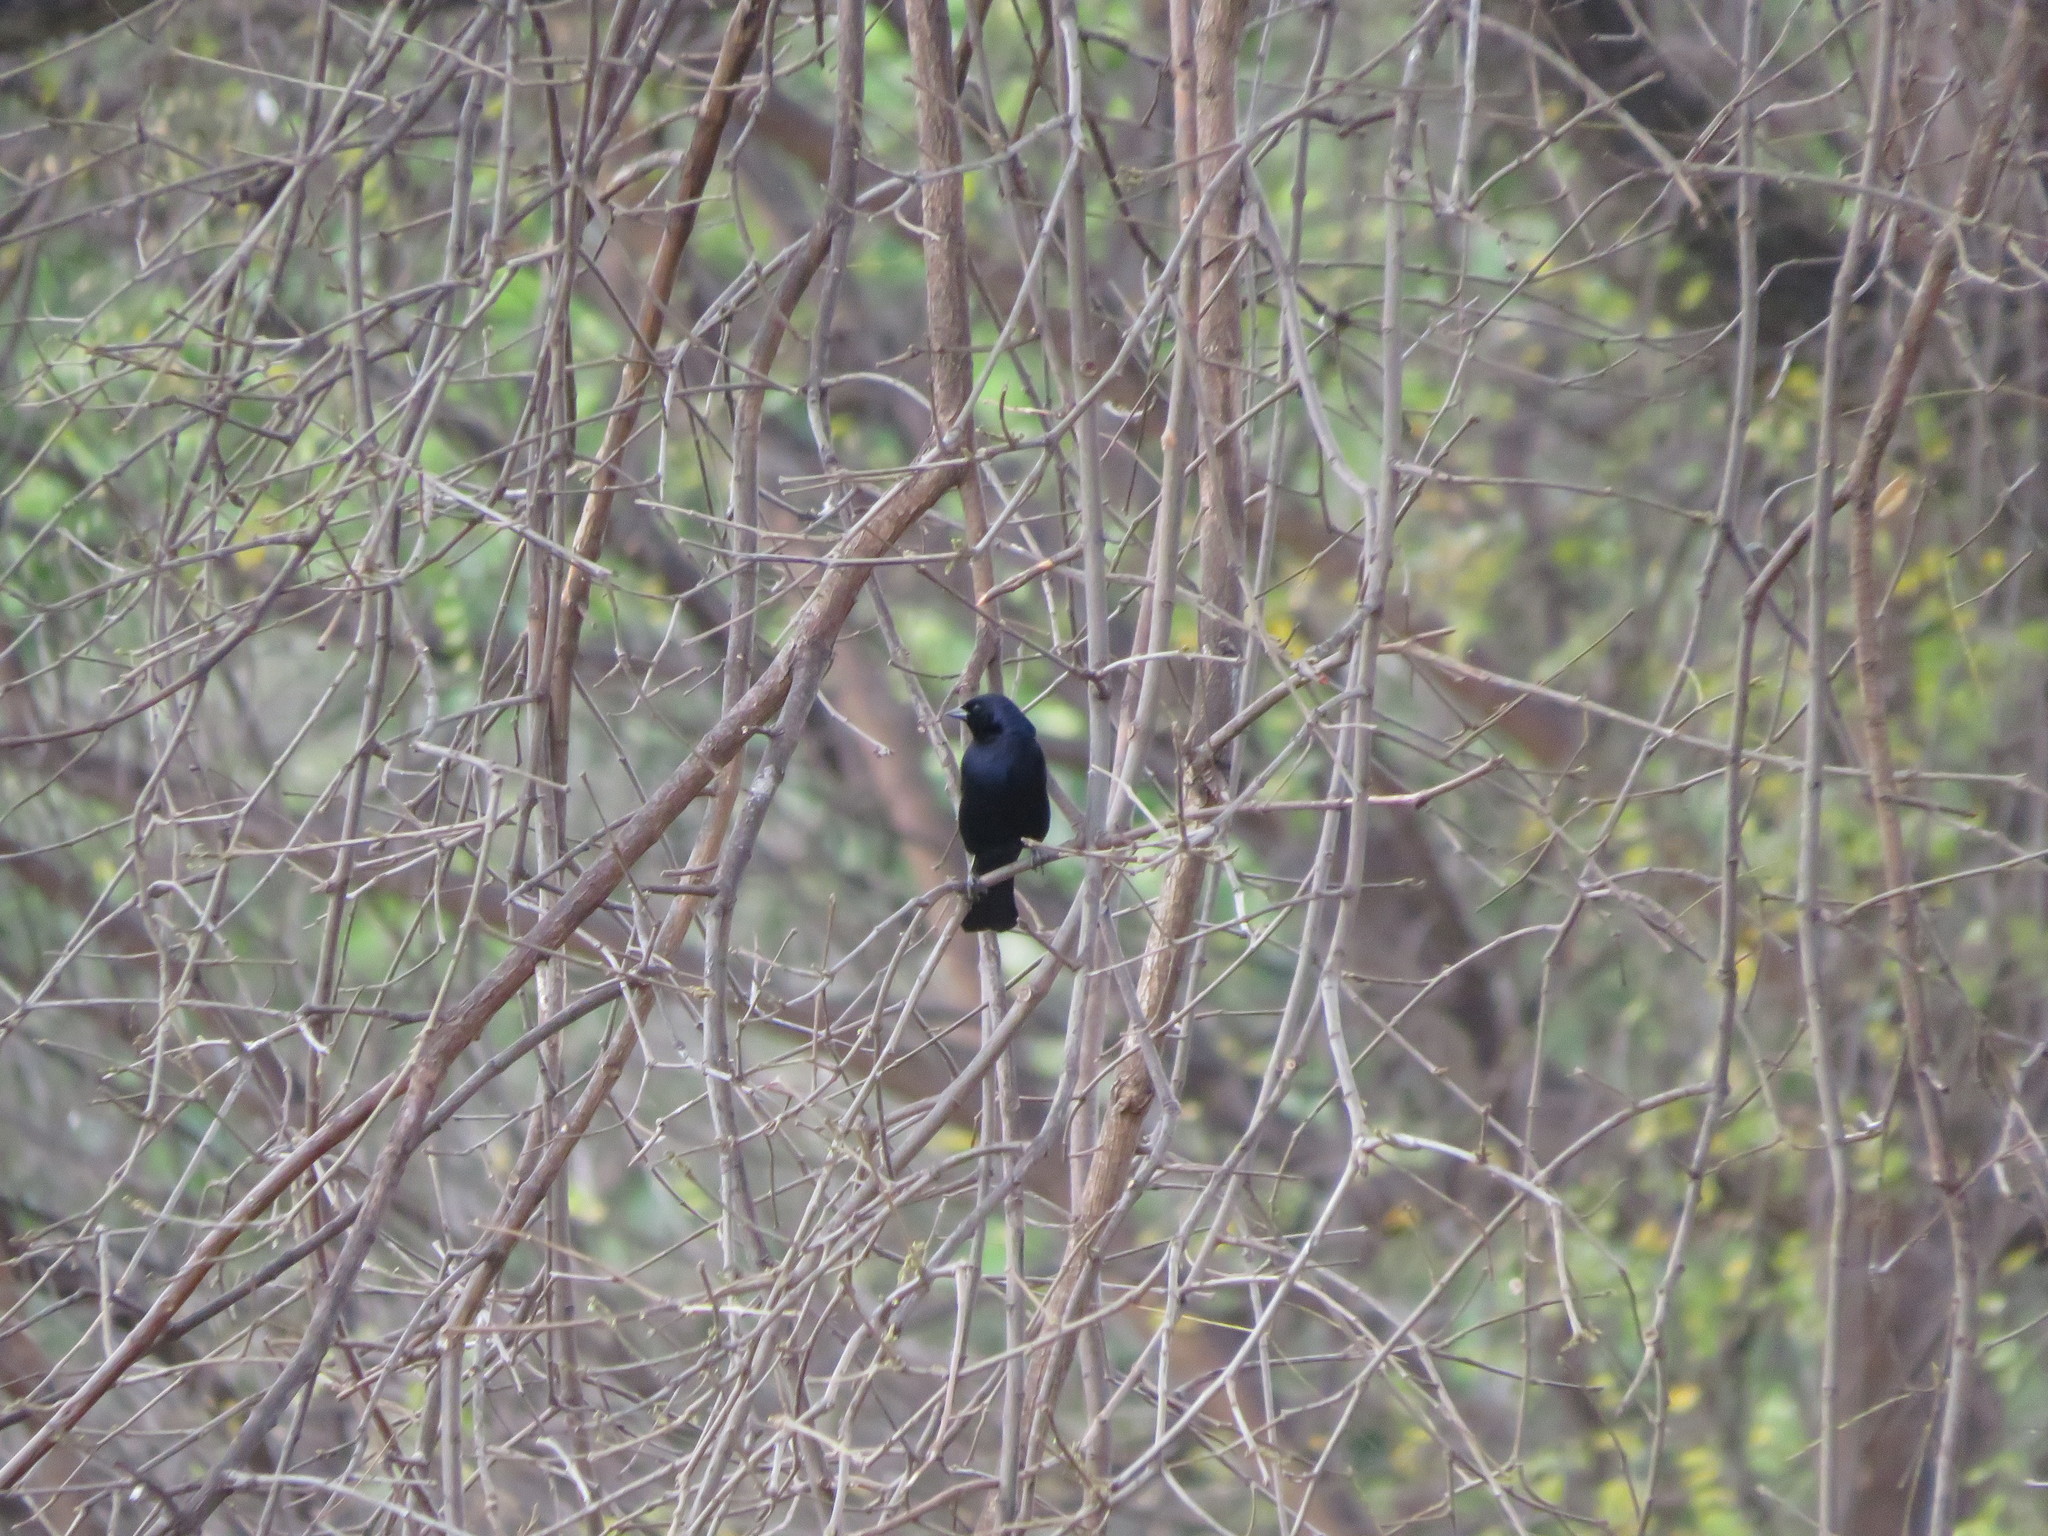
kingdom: Animalia
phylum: Chordata
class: Aves
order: Passeriformes
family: Icteridae
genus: Molothrus
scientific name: Molothrus bonariensis
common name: Shiny cowbird
